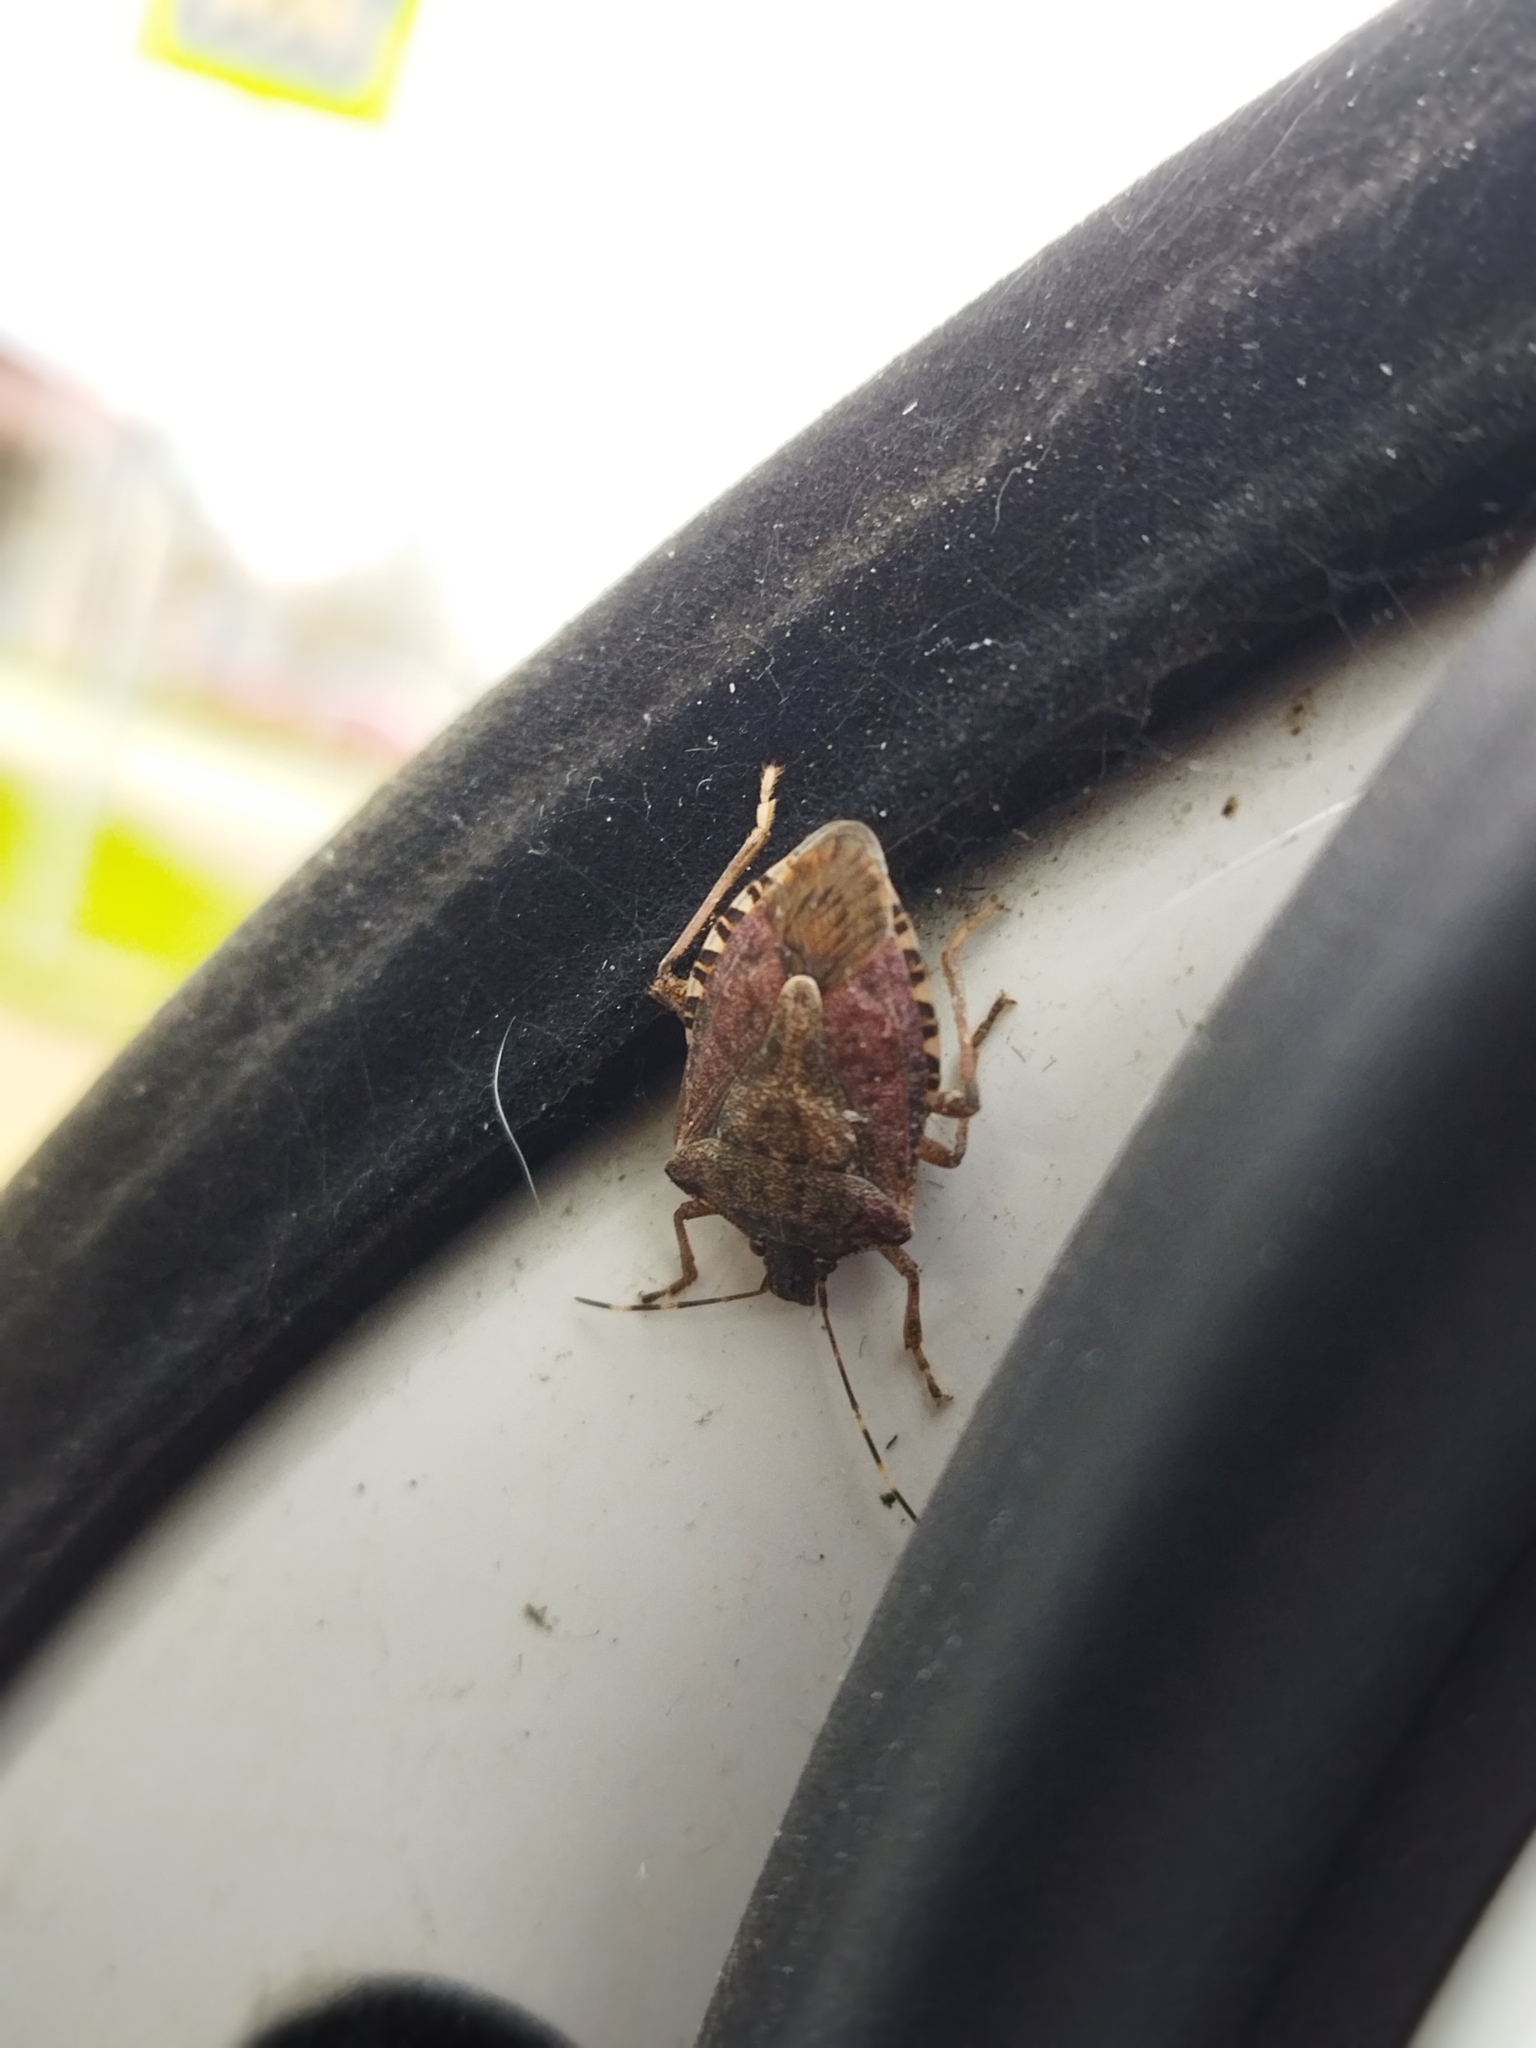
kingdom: Animalia
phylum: Arthropoda
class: Insecta
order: Hemiptera
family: Pentatomidae
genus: Halyomorpha
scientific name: Halyomorpha halys
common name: Brown marmorated stink bug
